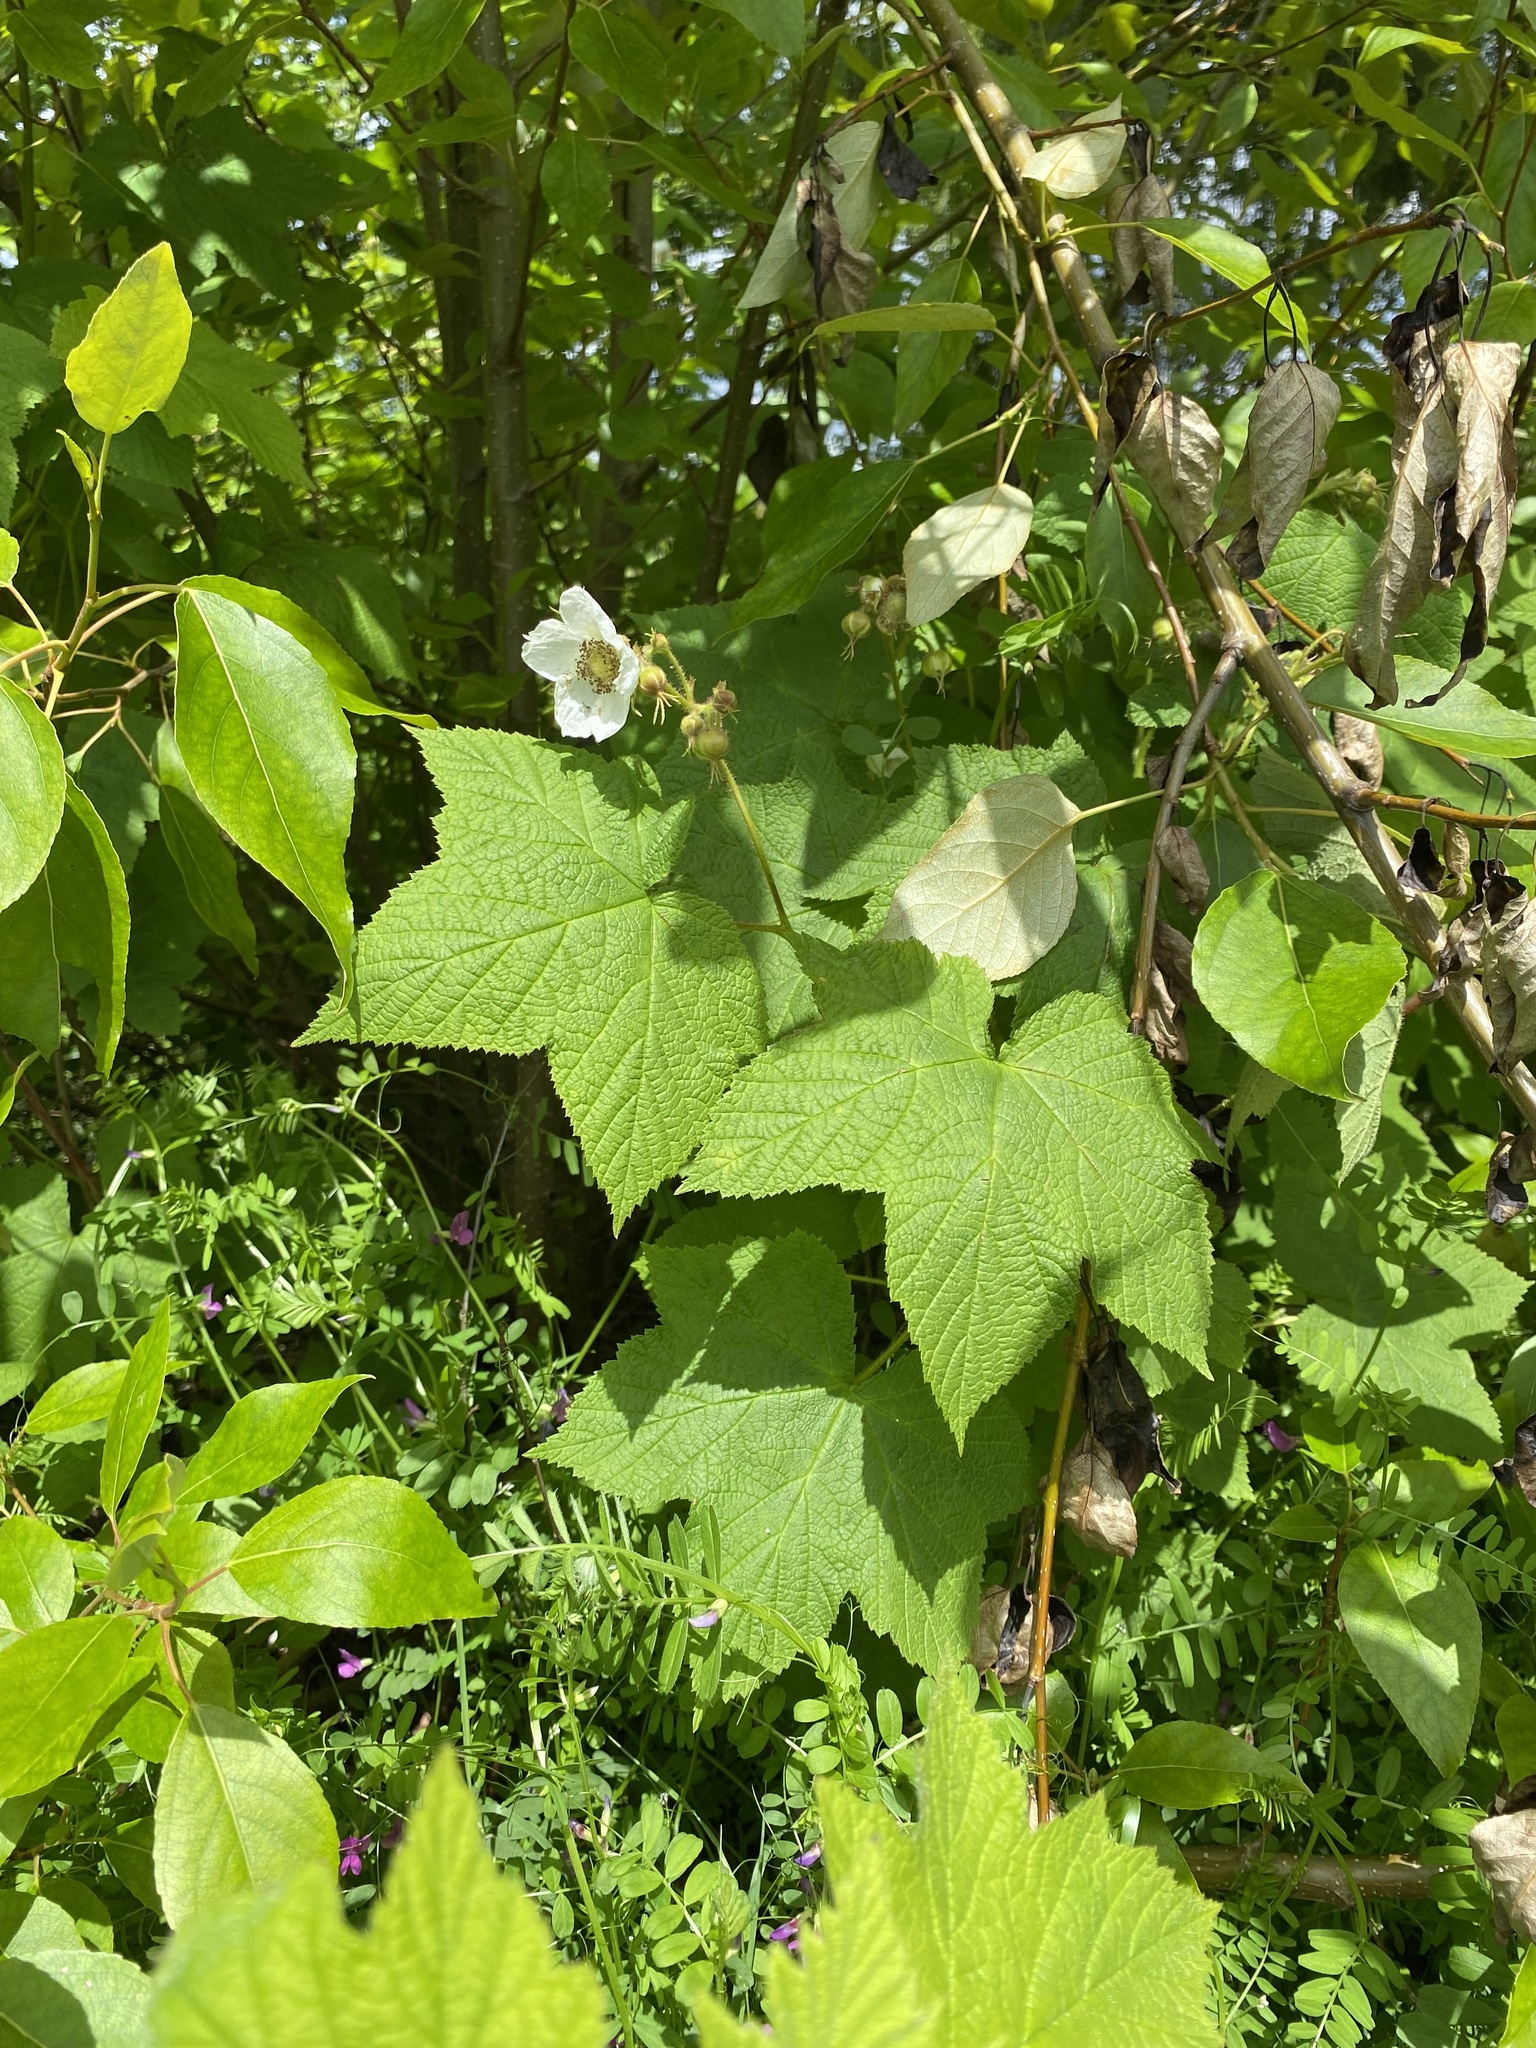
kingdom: Plantae
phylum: Tracheophyta
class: Magnoliopsida
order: Rosales
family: Rosaceae
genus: Rubus
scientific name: Rubus parviflorus
